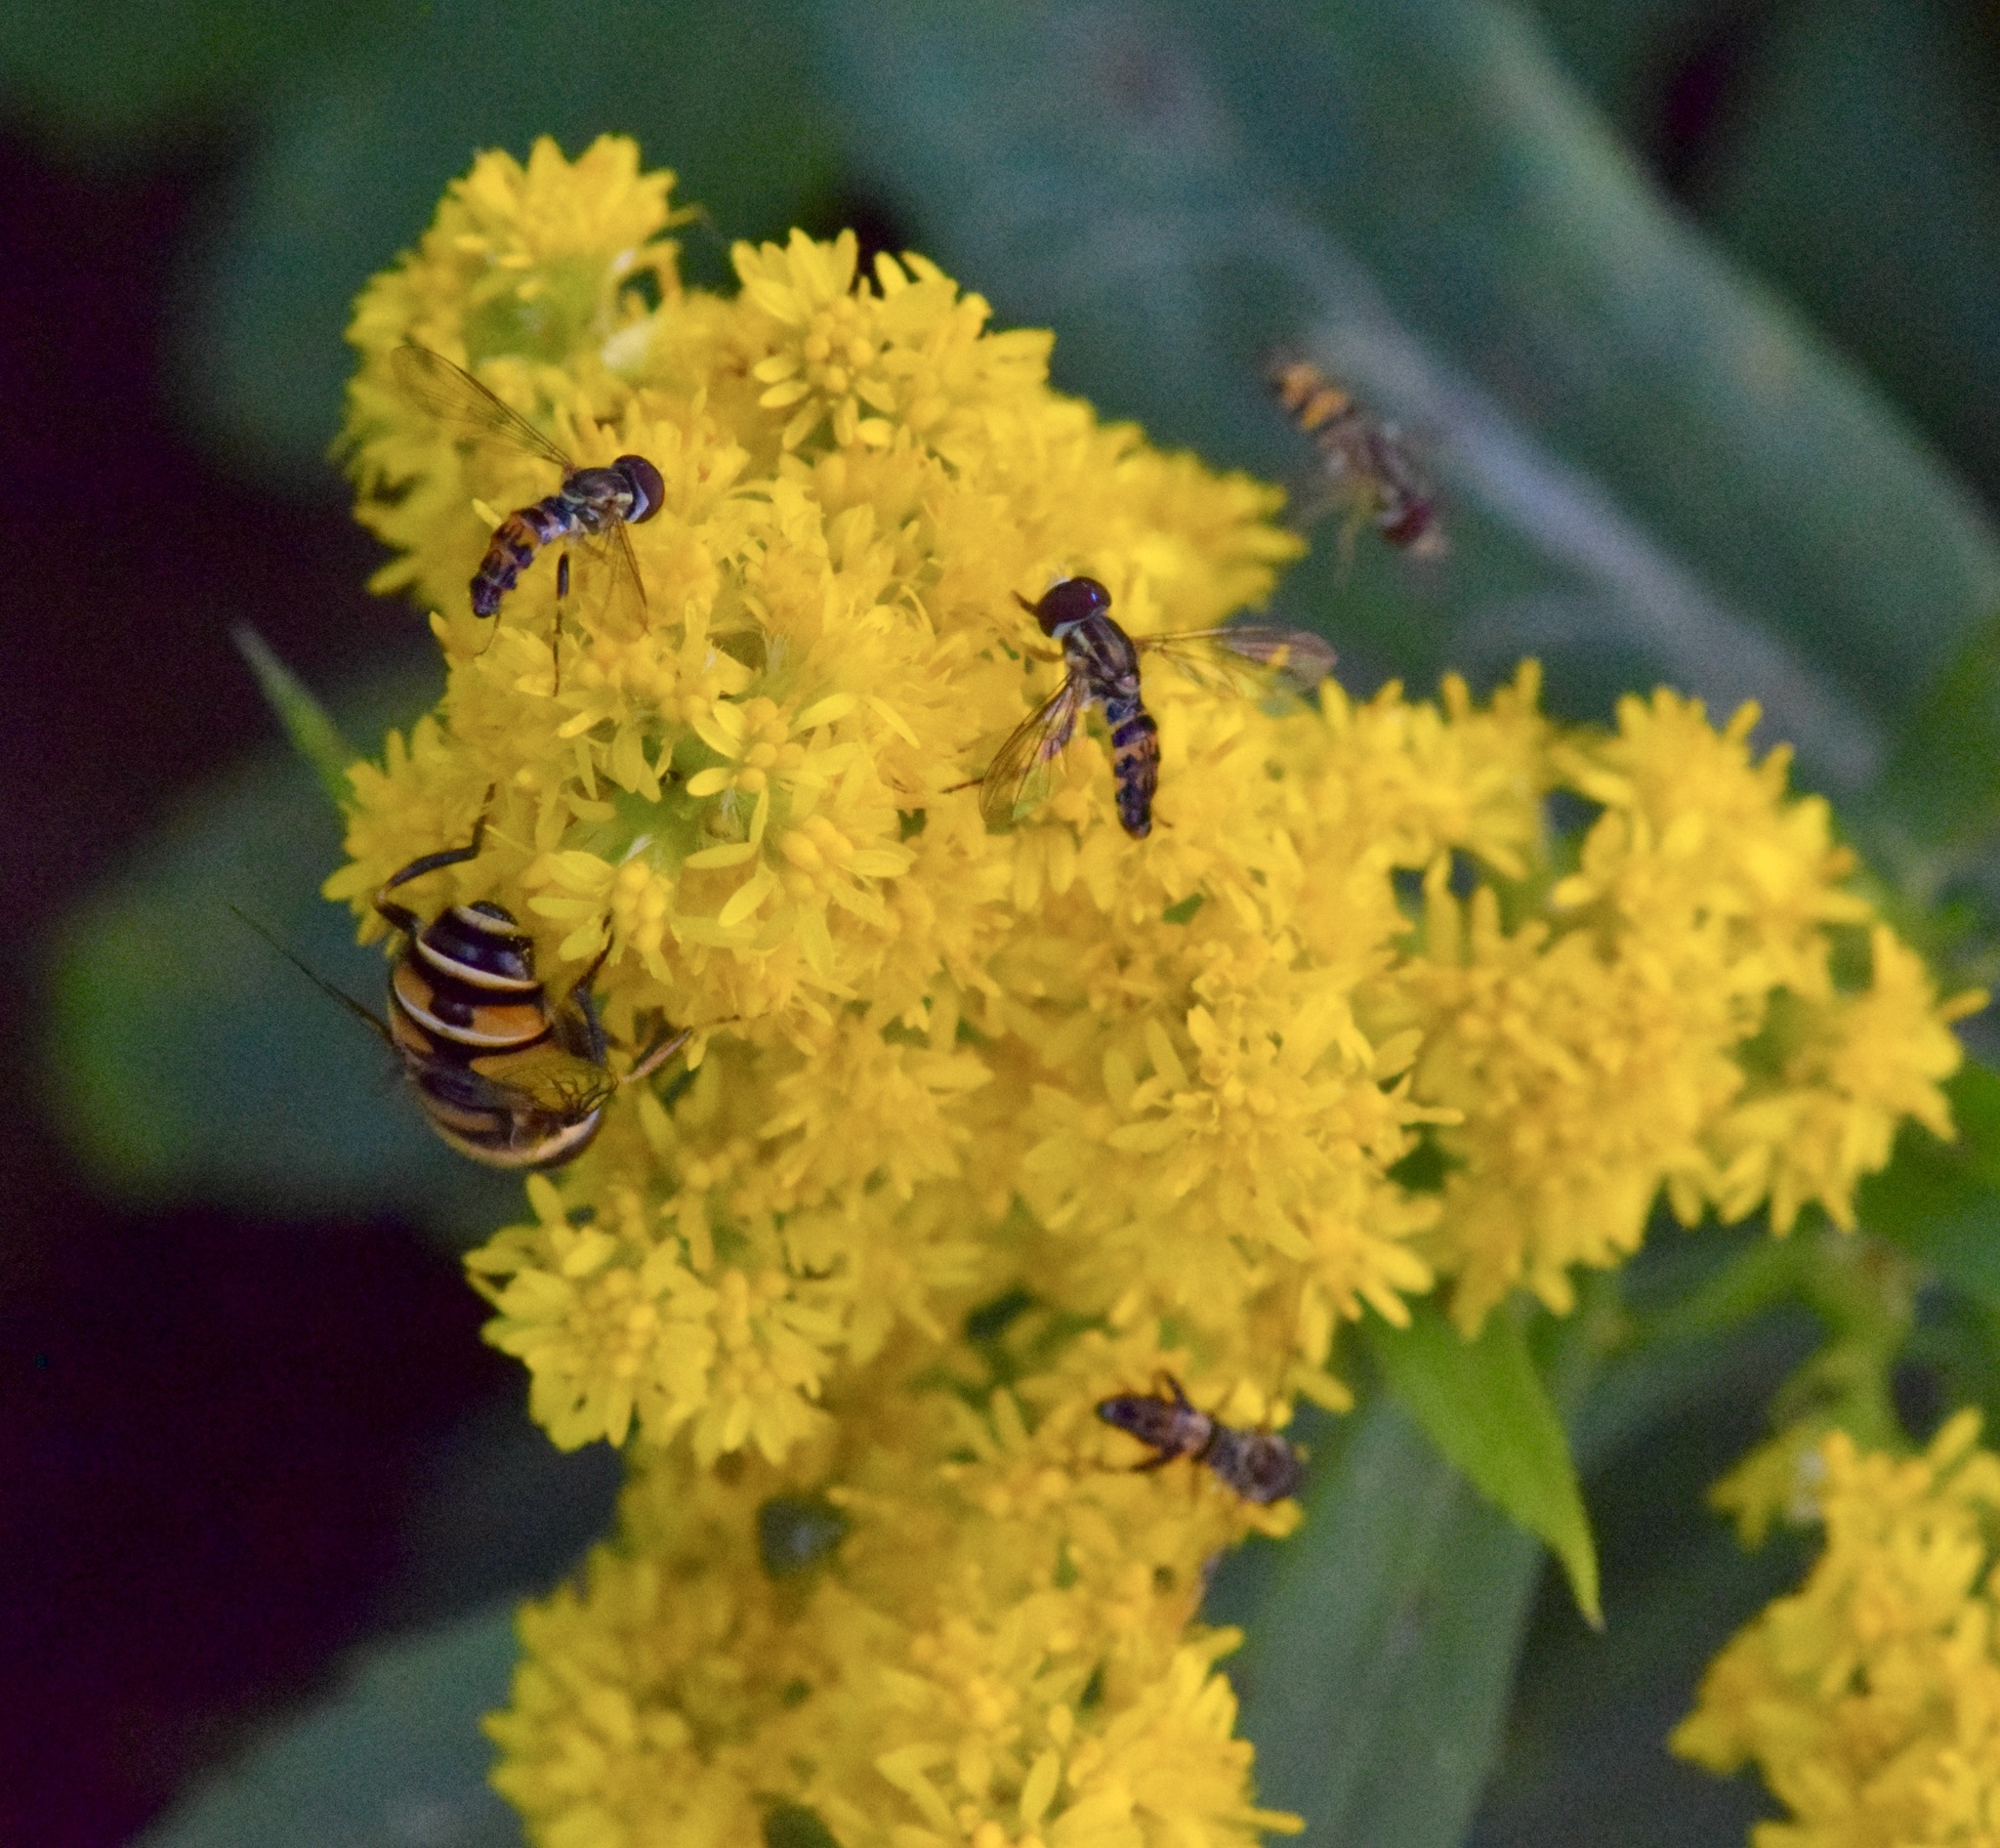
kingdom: Animalia
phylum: Arthropoda
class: Insecta
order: Diptera
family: Syrphidae
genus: Eristalis
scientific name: Eristalis transversa
